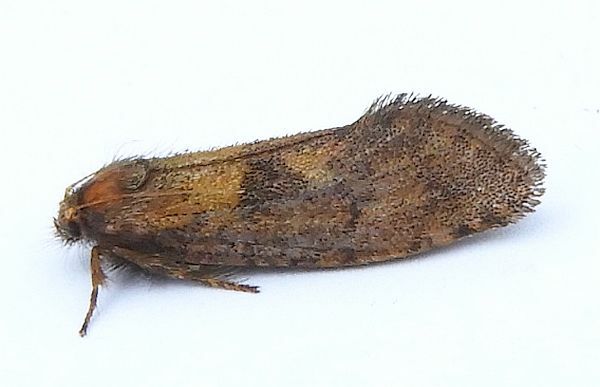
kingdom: Animalia
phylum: Arthropoda
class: Insecta
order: Lepidoptera
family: Tineidae
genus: Acrolophus
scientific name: Acrolophus mora
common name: Dark acrolophus
